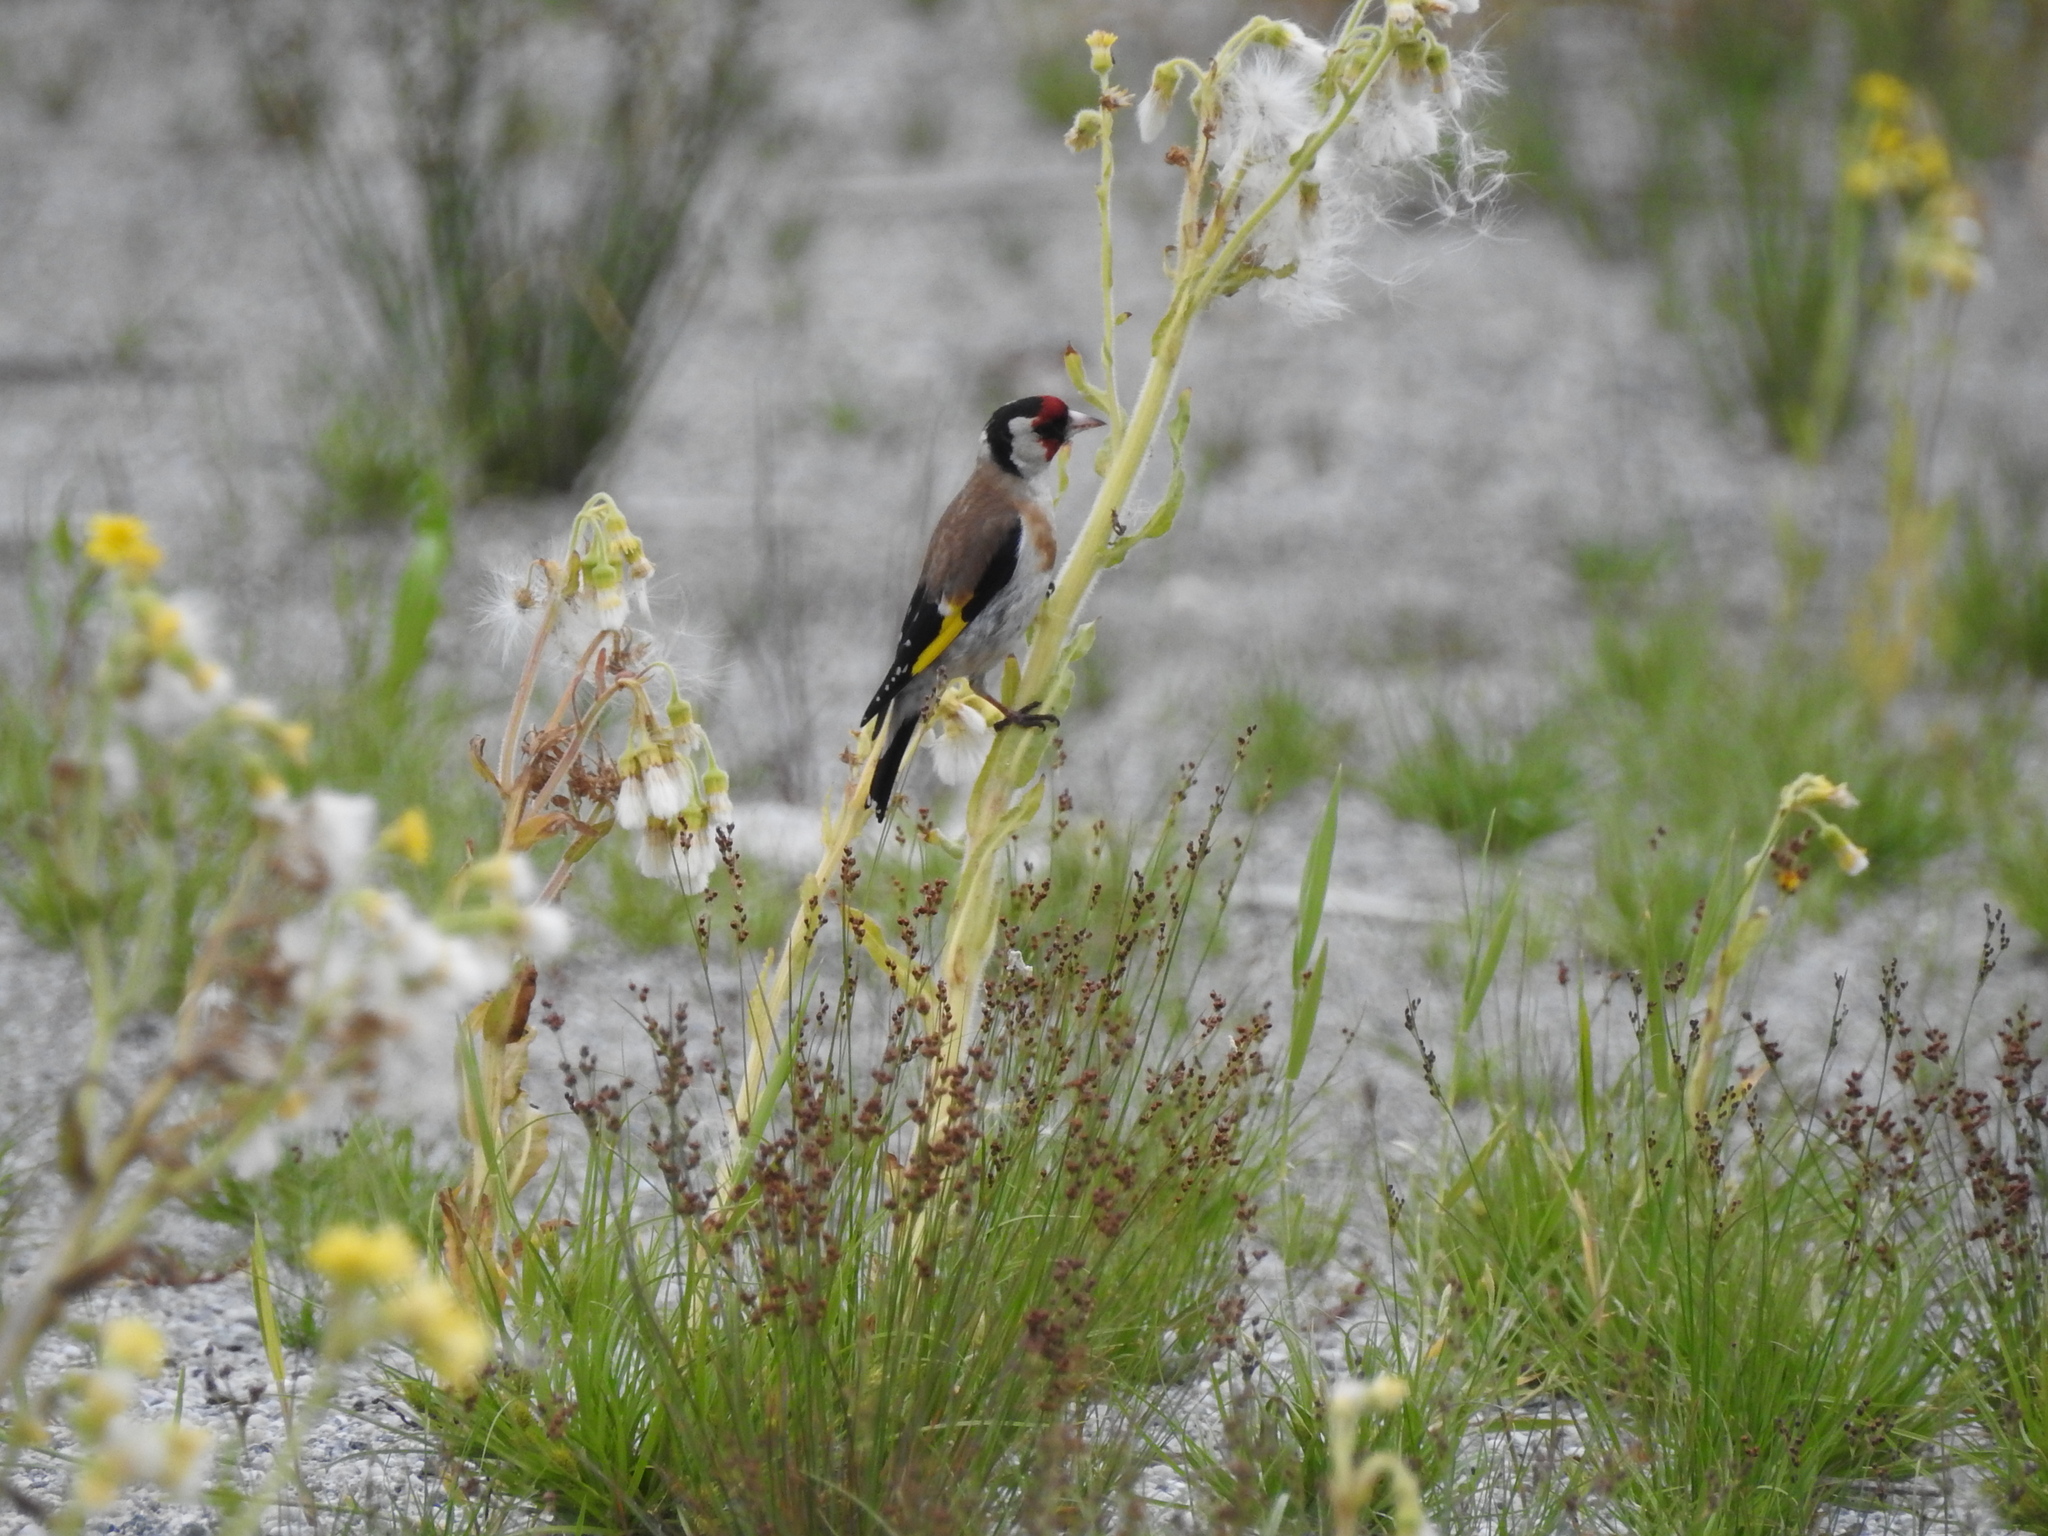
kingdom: Animalia
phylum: Chordata
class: Aves
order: Passeriformes
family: Fringillidae
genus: Carduelis
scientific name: Carduelis carduelis
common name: European goldfinch
